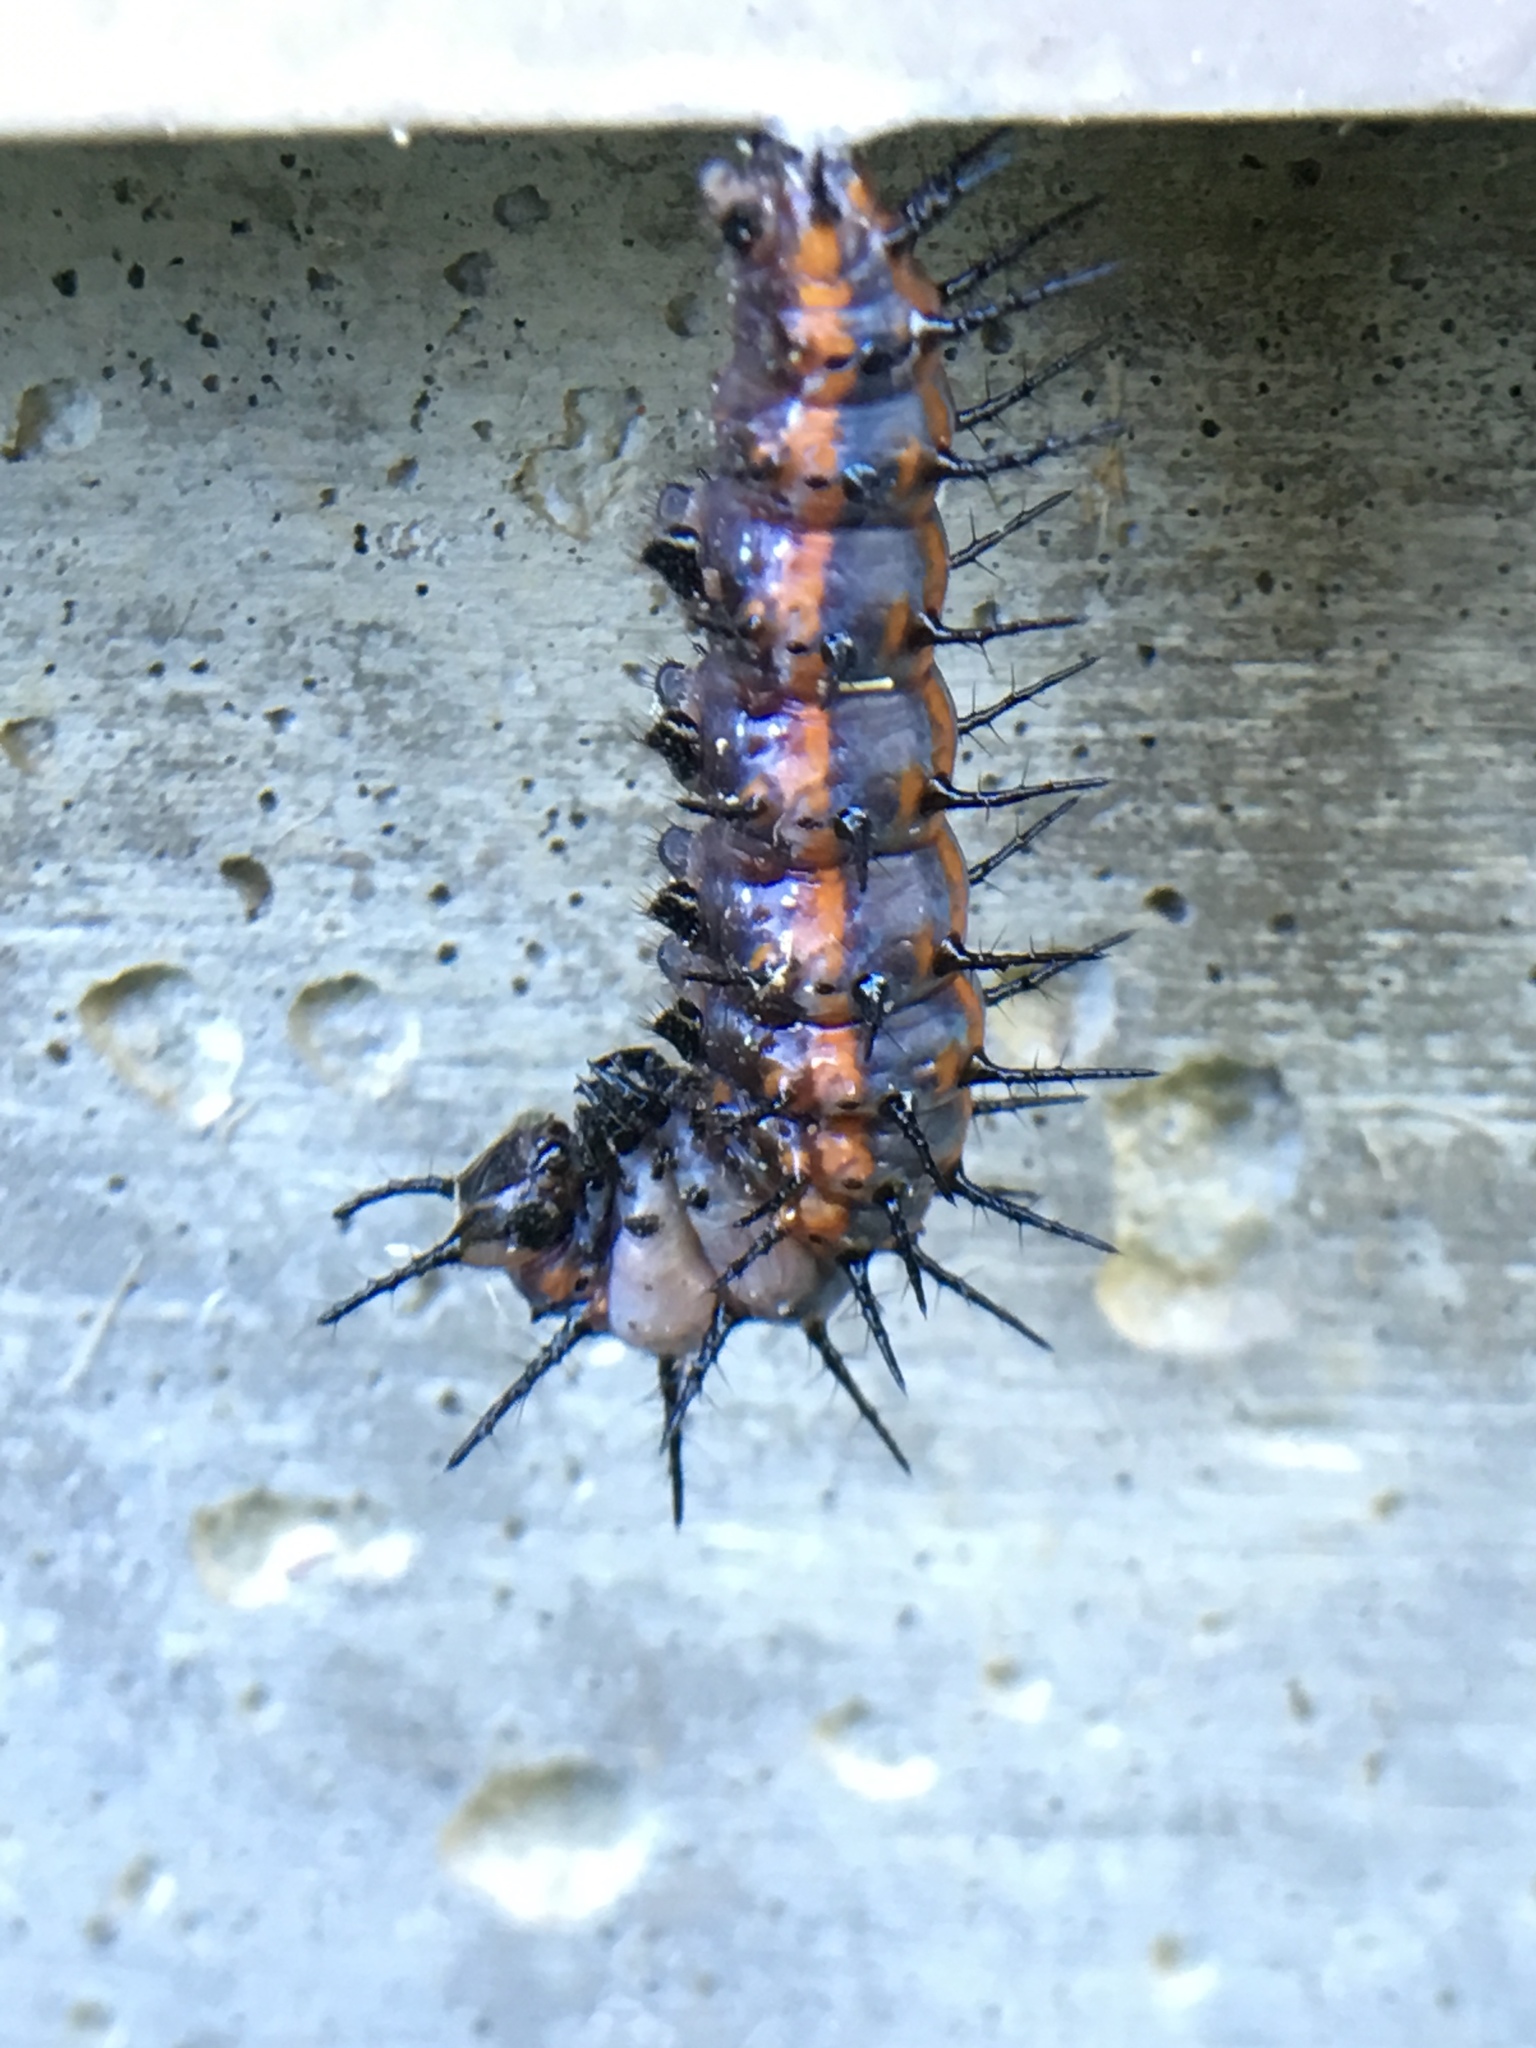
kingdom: Animalia
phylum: Arthropoda
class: Insecta
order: Lepidoptera
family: Nymphalidae
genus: Dione
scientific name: Dione vanillae
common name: Gulf fritillary
